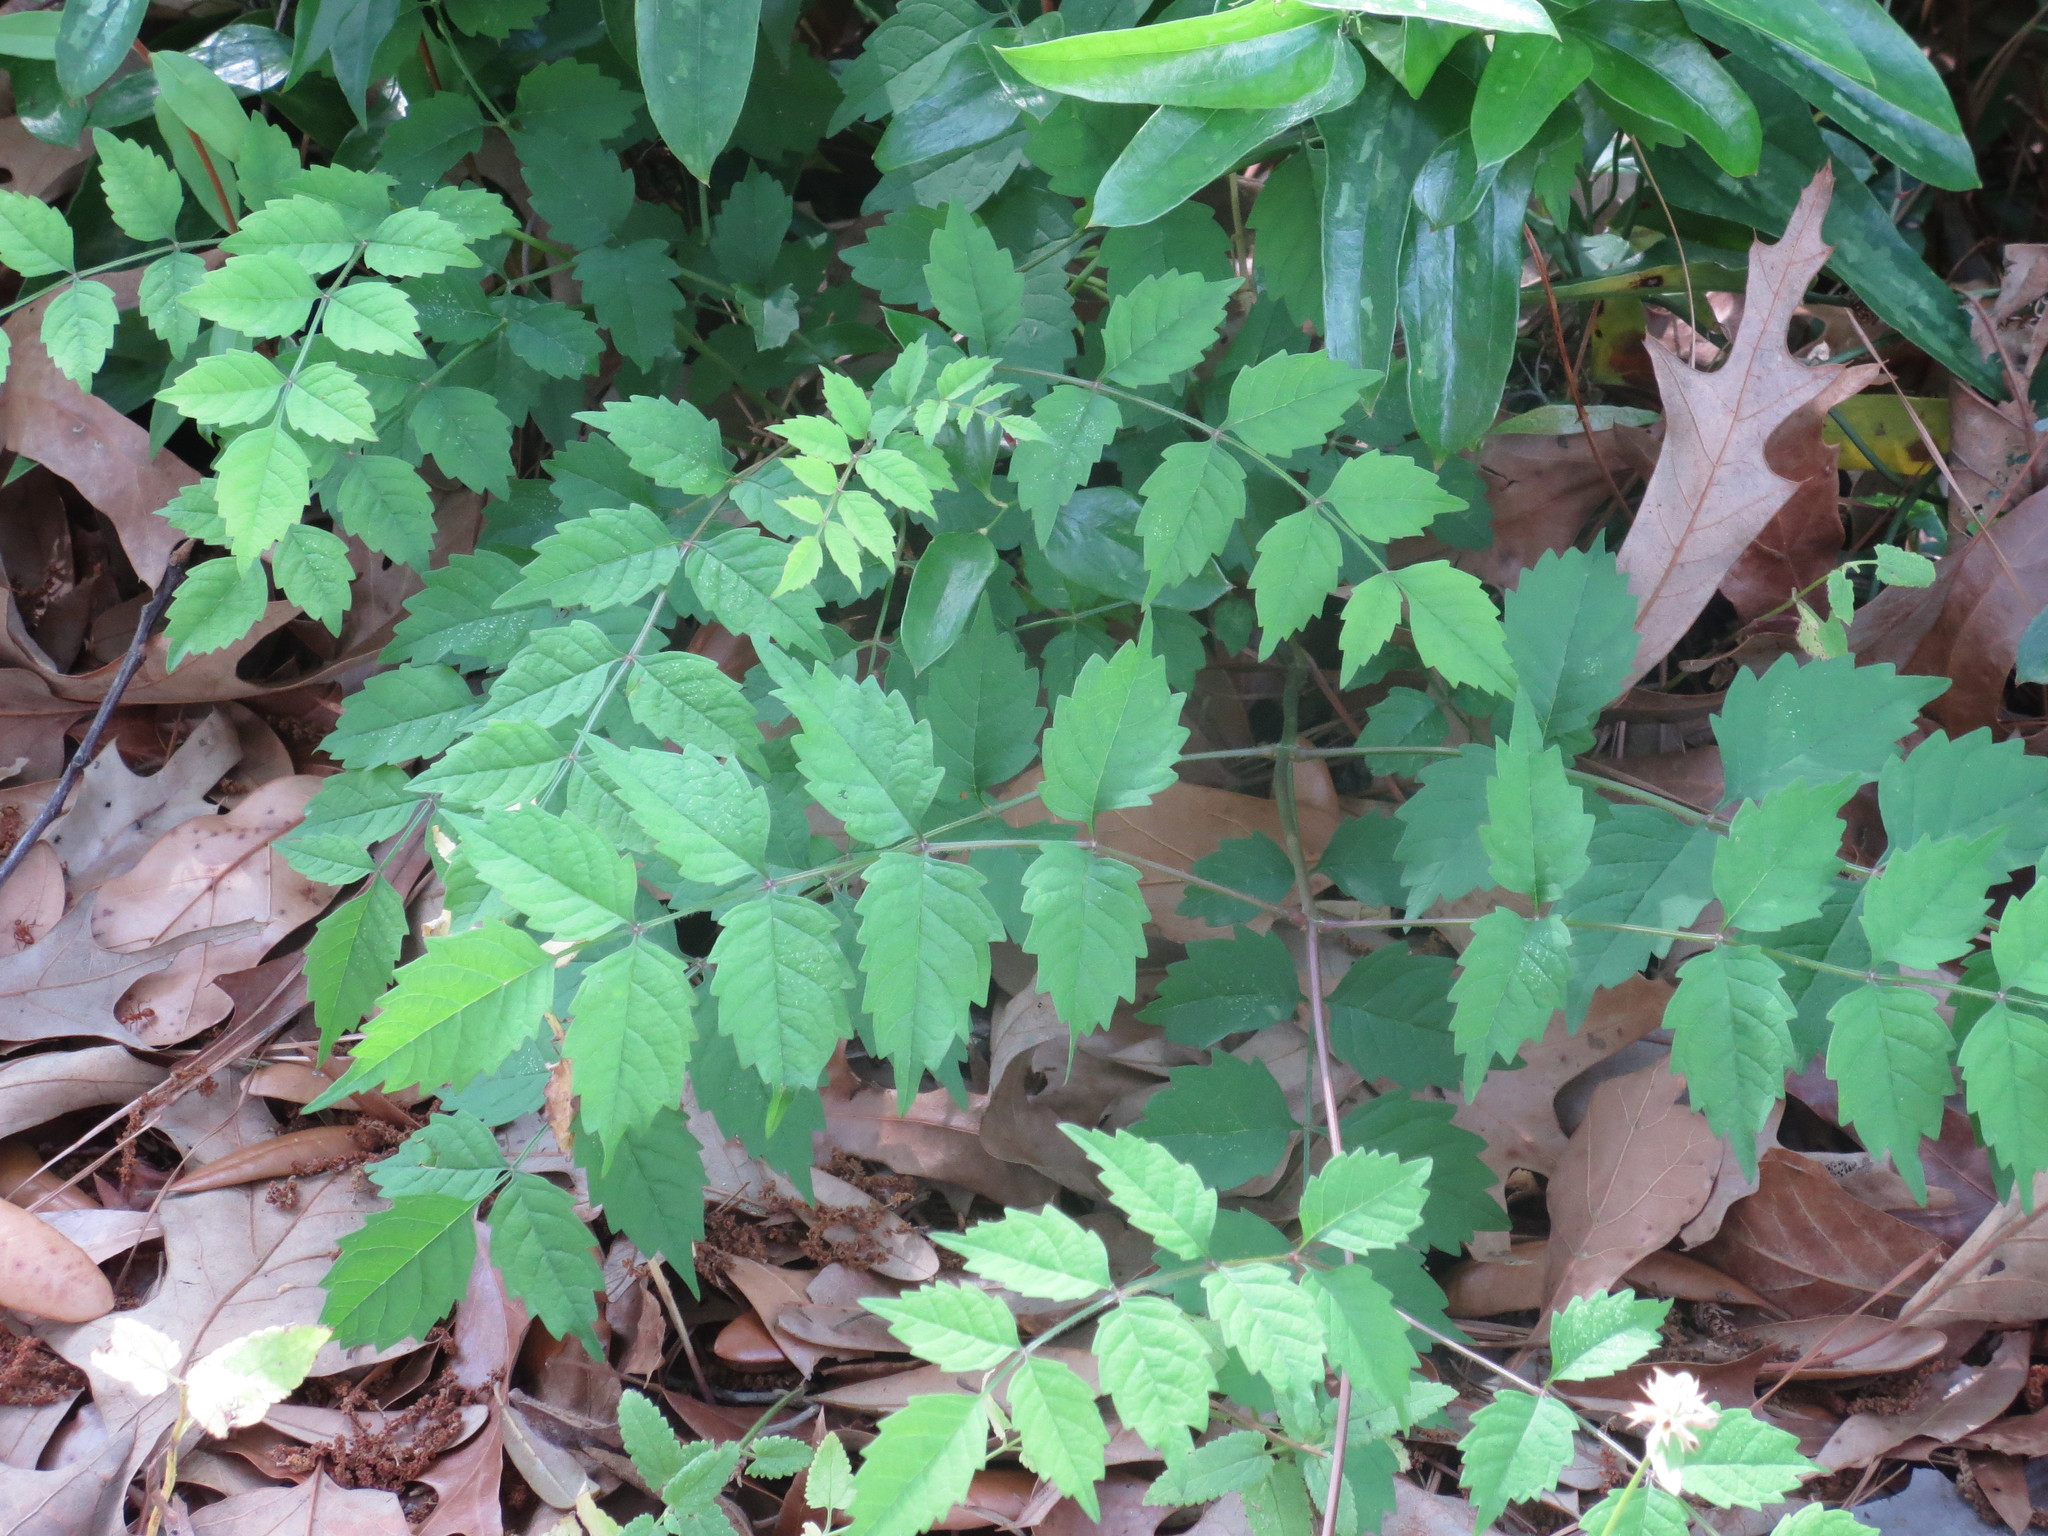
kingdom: Plantae
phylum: Tracheophyta
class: Magnoliopsida
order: Lamiales
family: Bignoniaceae
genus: Campsis
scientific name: Campsis radicans
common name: Trumpet-creeper
